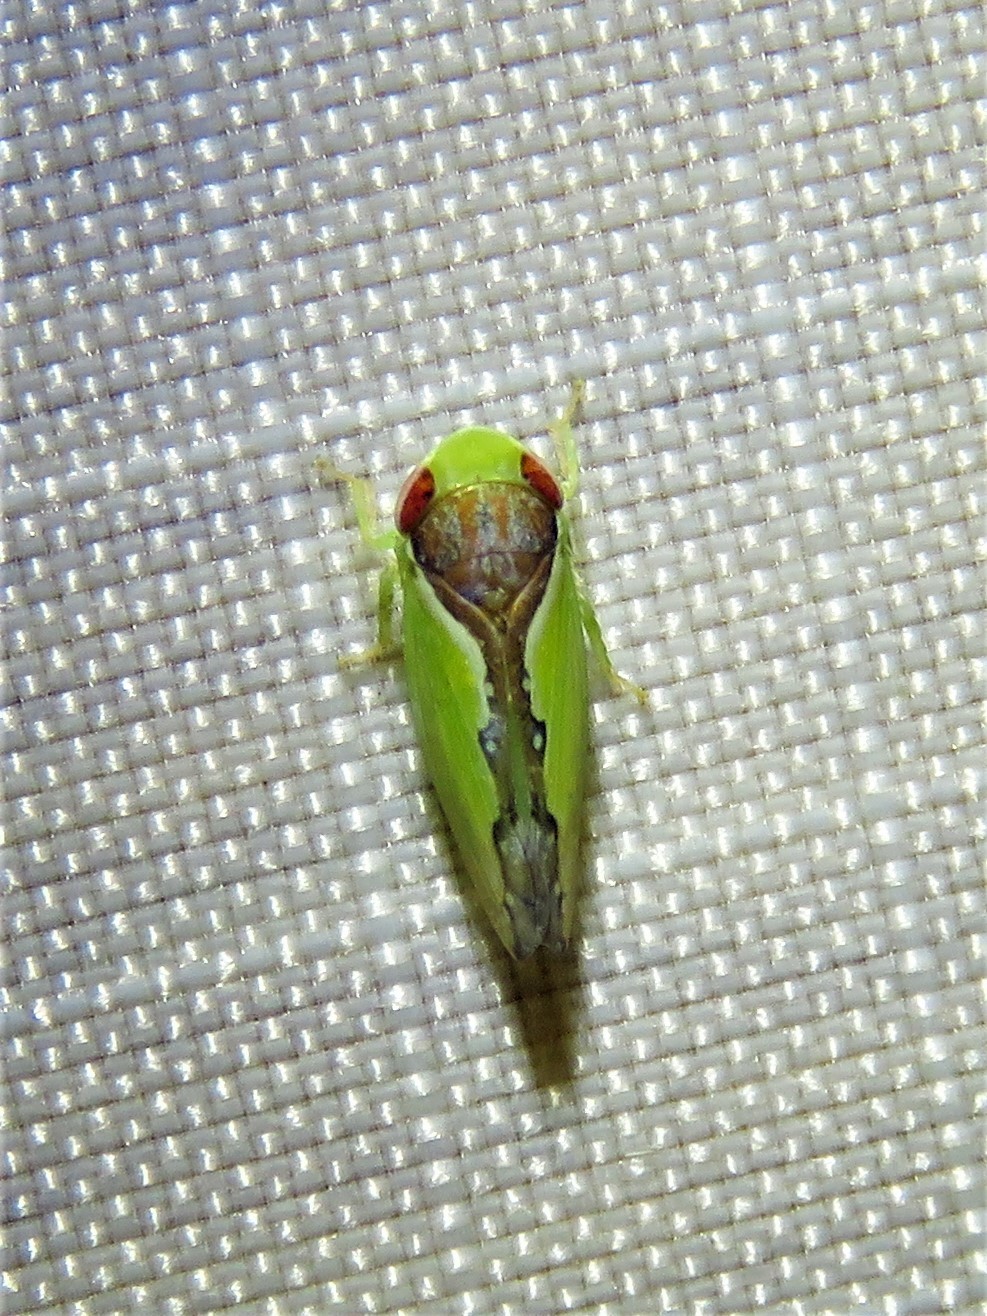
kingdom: Animalia
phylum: Arthropoda
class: Insecta
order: Hemiptera
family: Cicadellidae
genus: Omansobara ing
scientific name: Omansobara ing Omansobara palliolata
